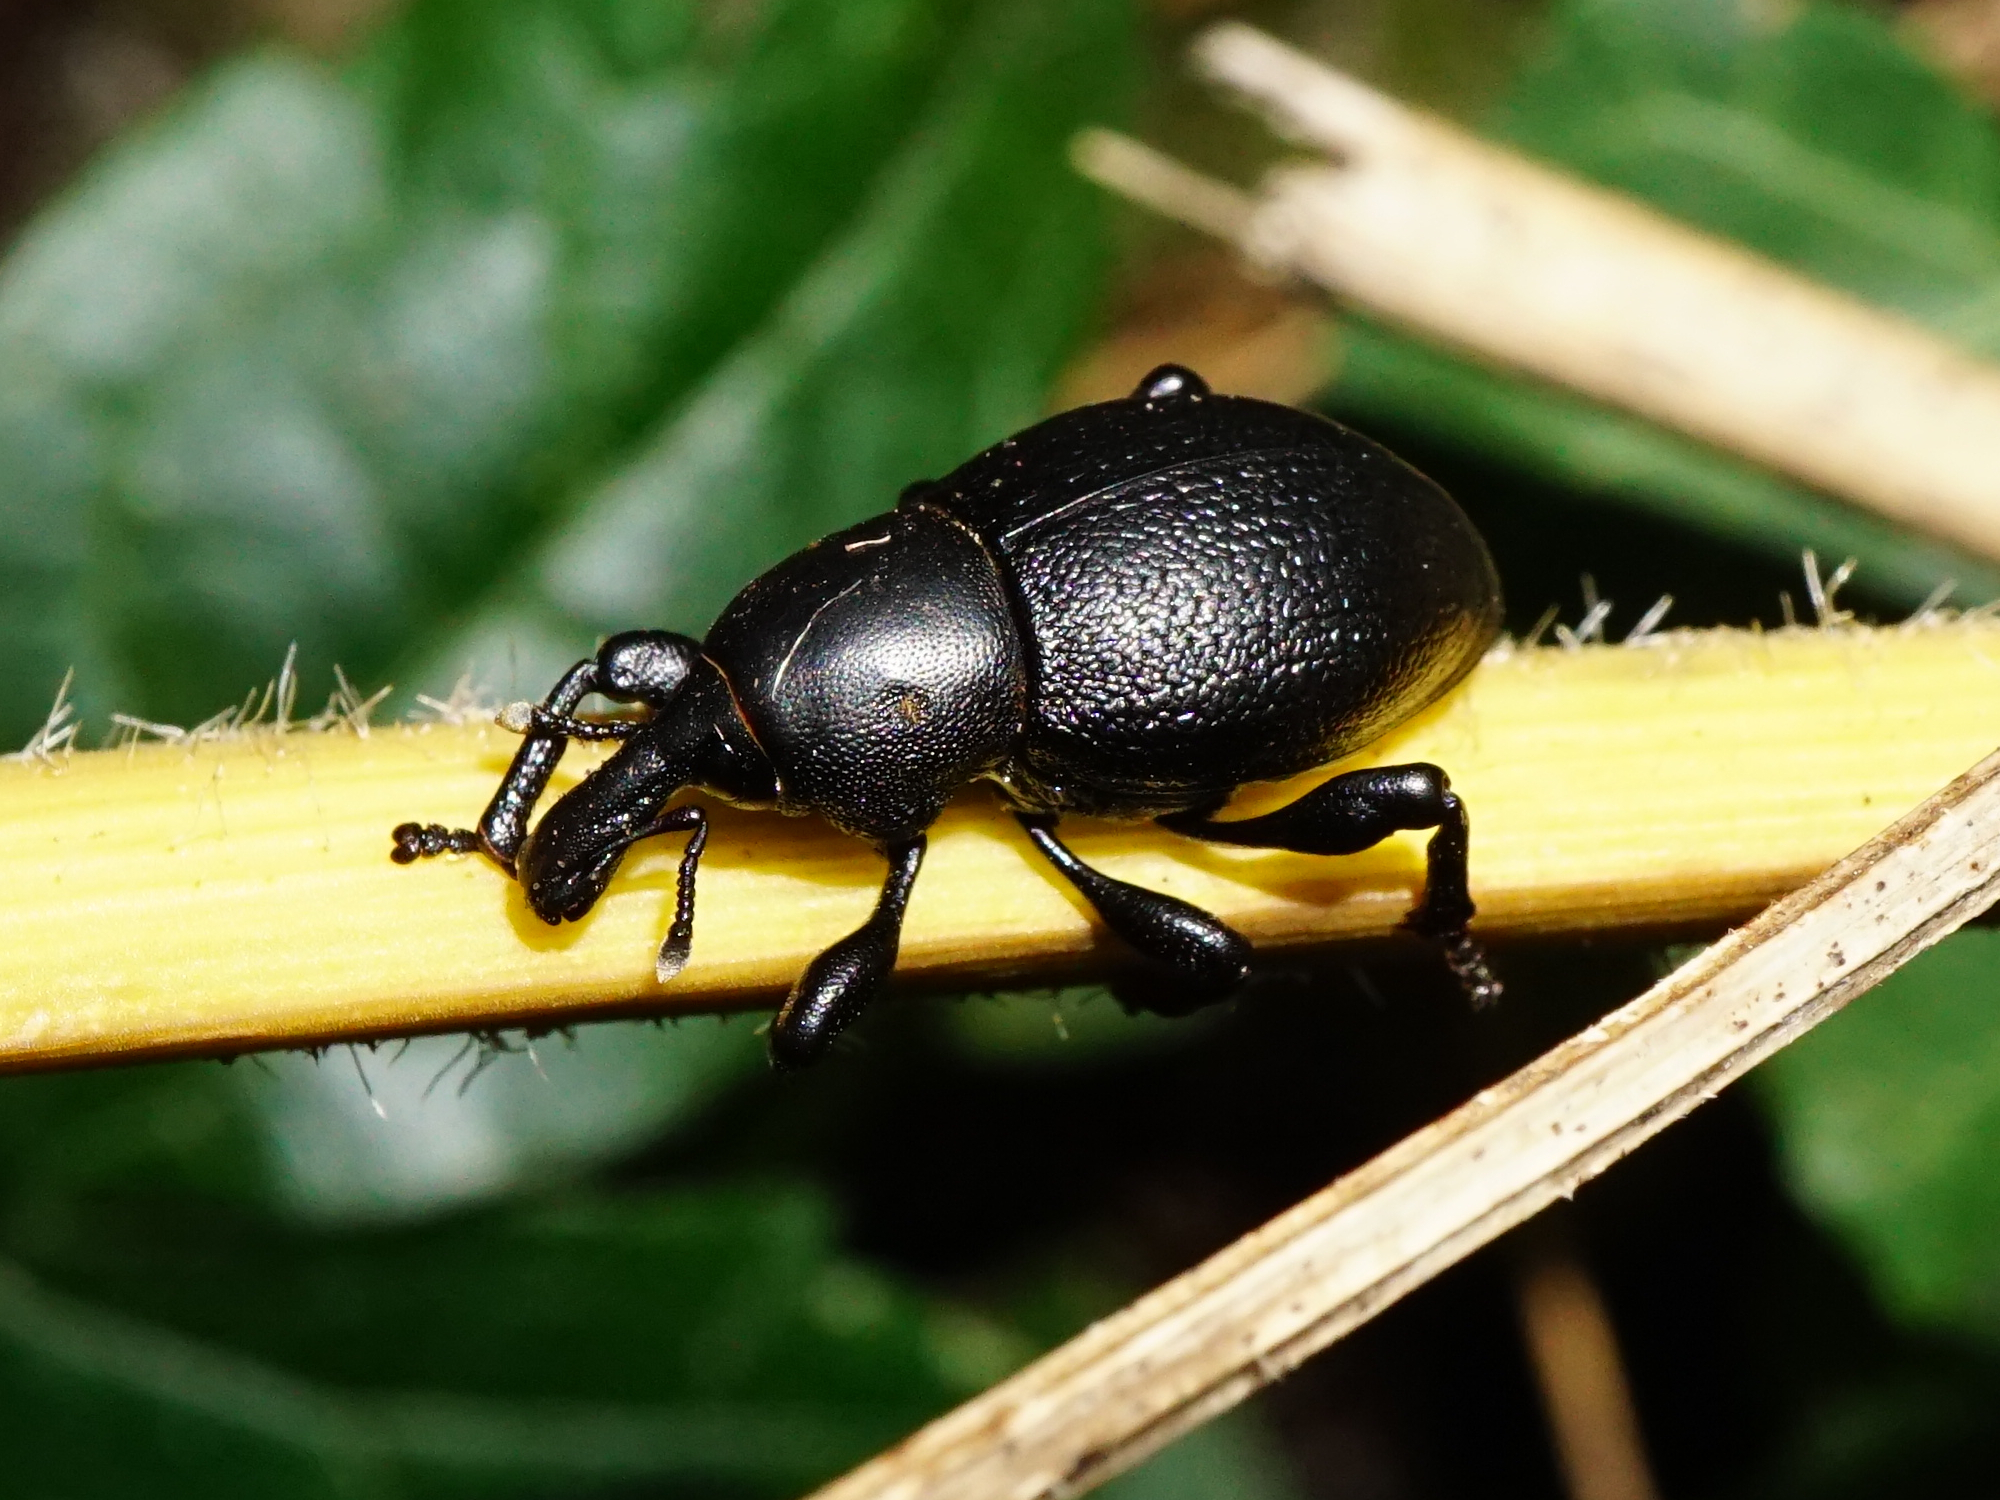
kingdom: Animalia
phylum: Arthropoda
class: Insecta
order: Coleoptera
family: Curculionidae
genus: Liparus
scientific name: Liparus coronatus
